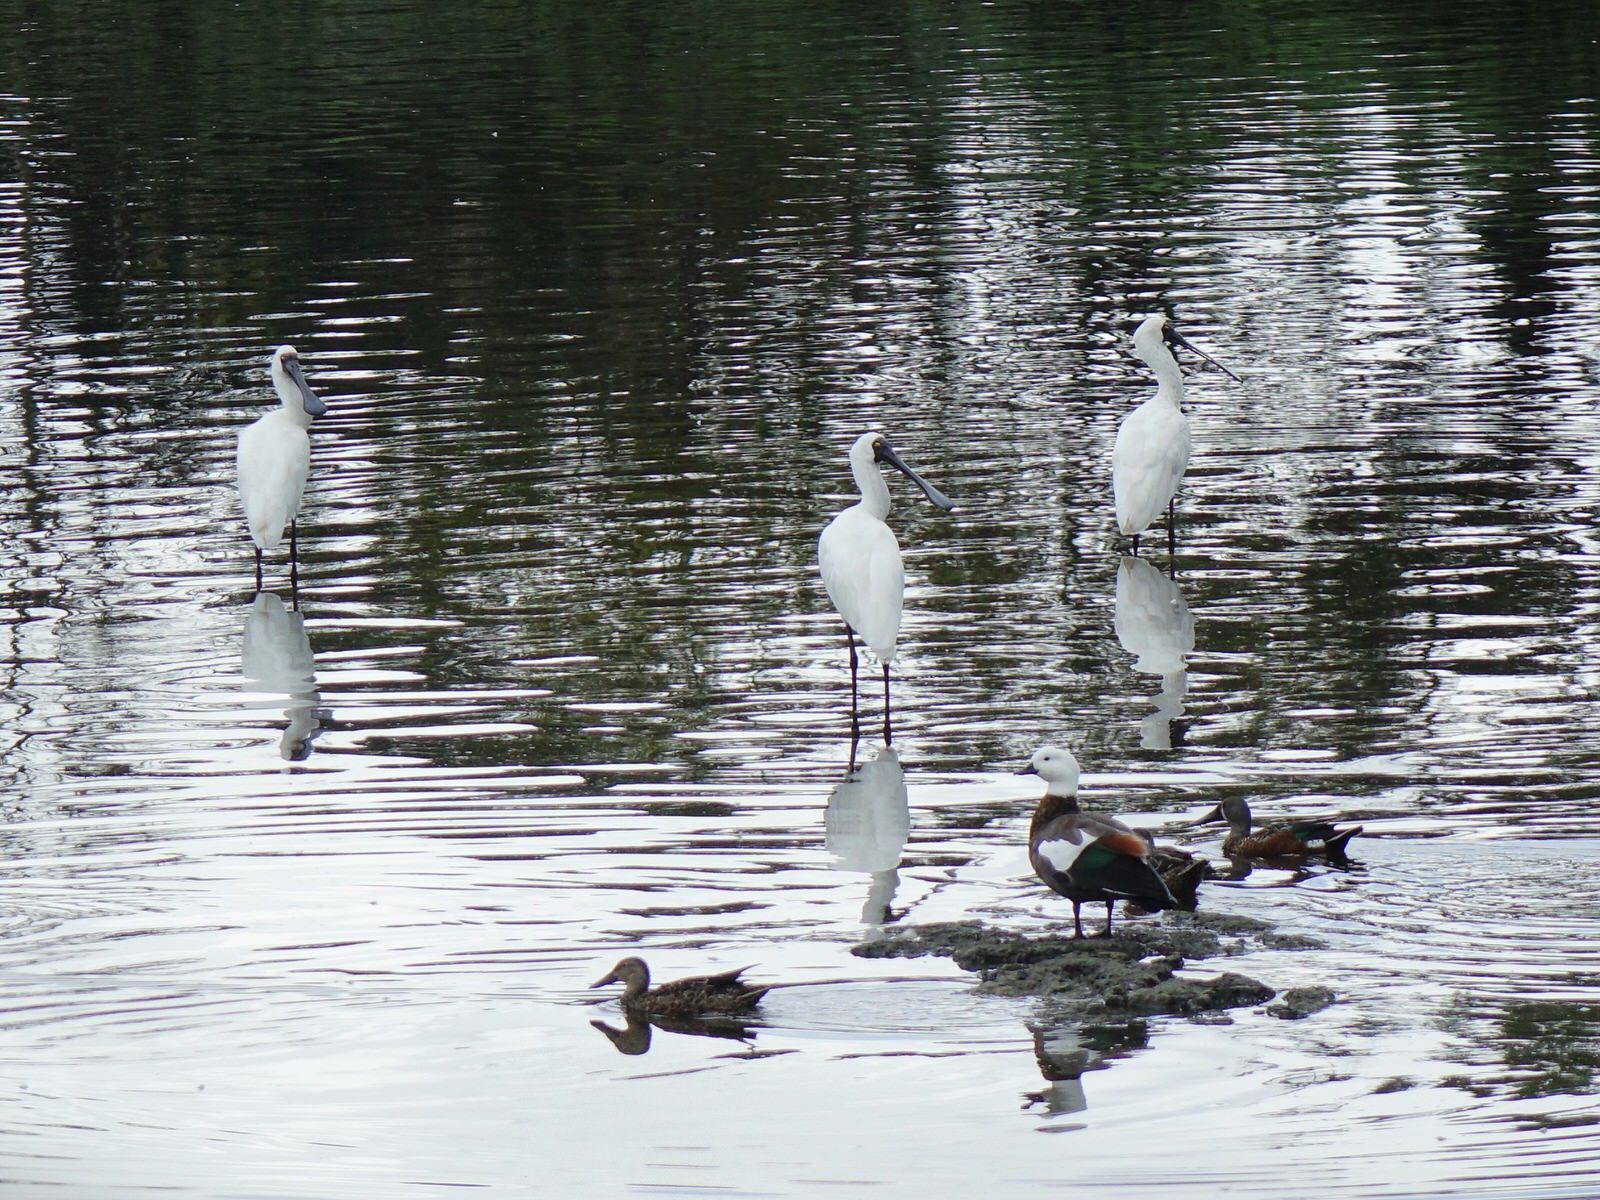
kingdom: Animalia
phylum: Chordata
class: Aves
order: Pelecaniformes
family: Threskiornithidae
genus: Platalea
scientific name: Platalea regia
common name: Royal spoonbill
